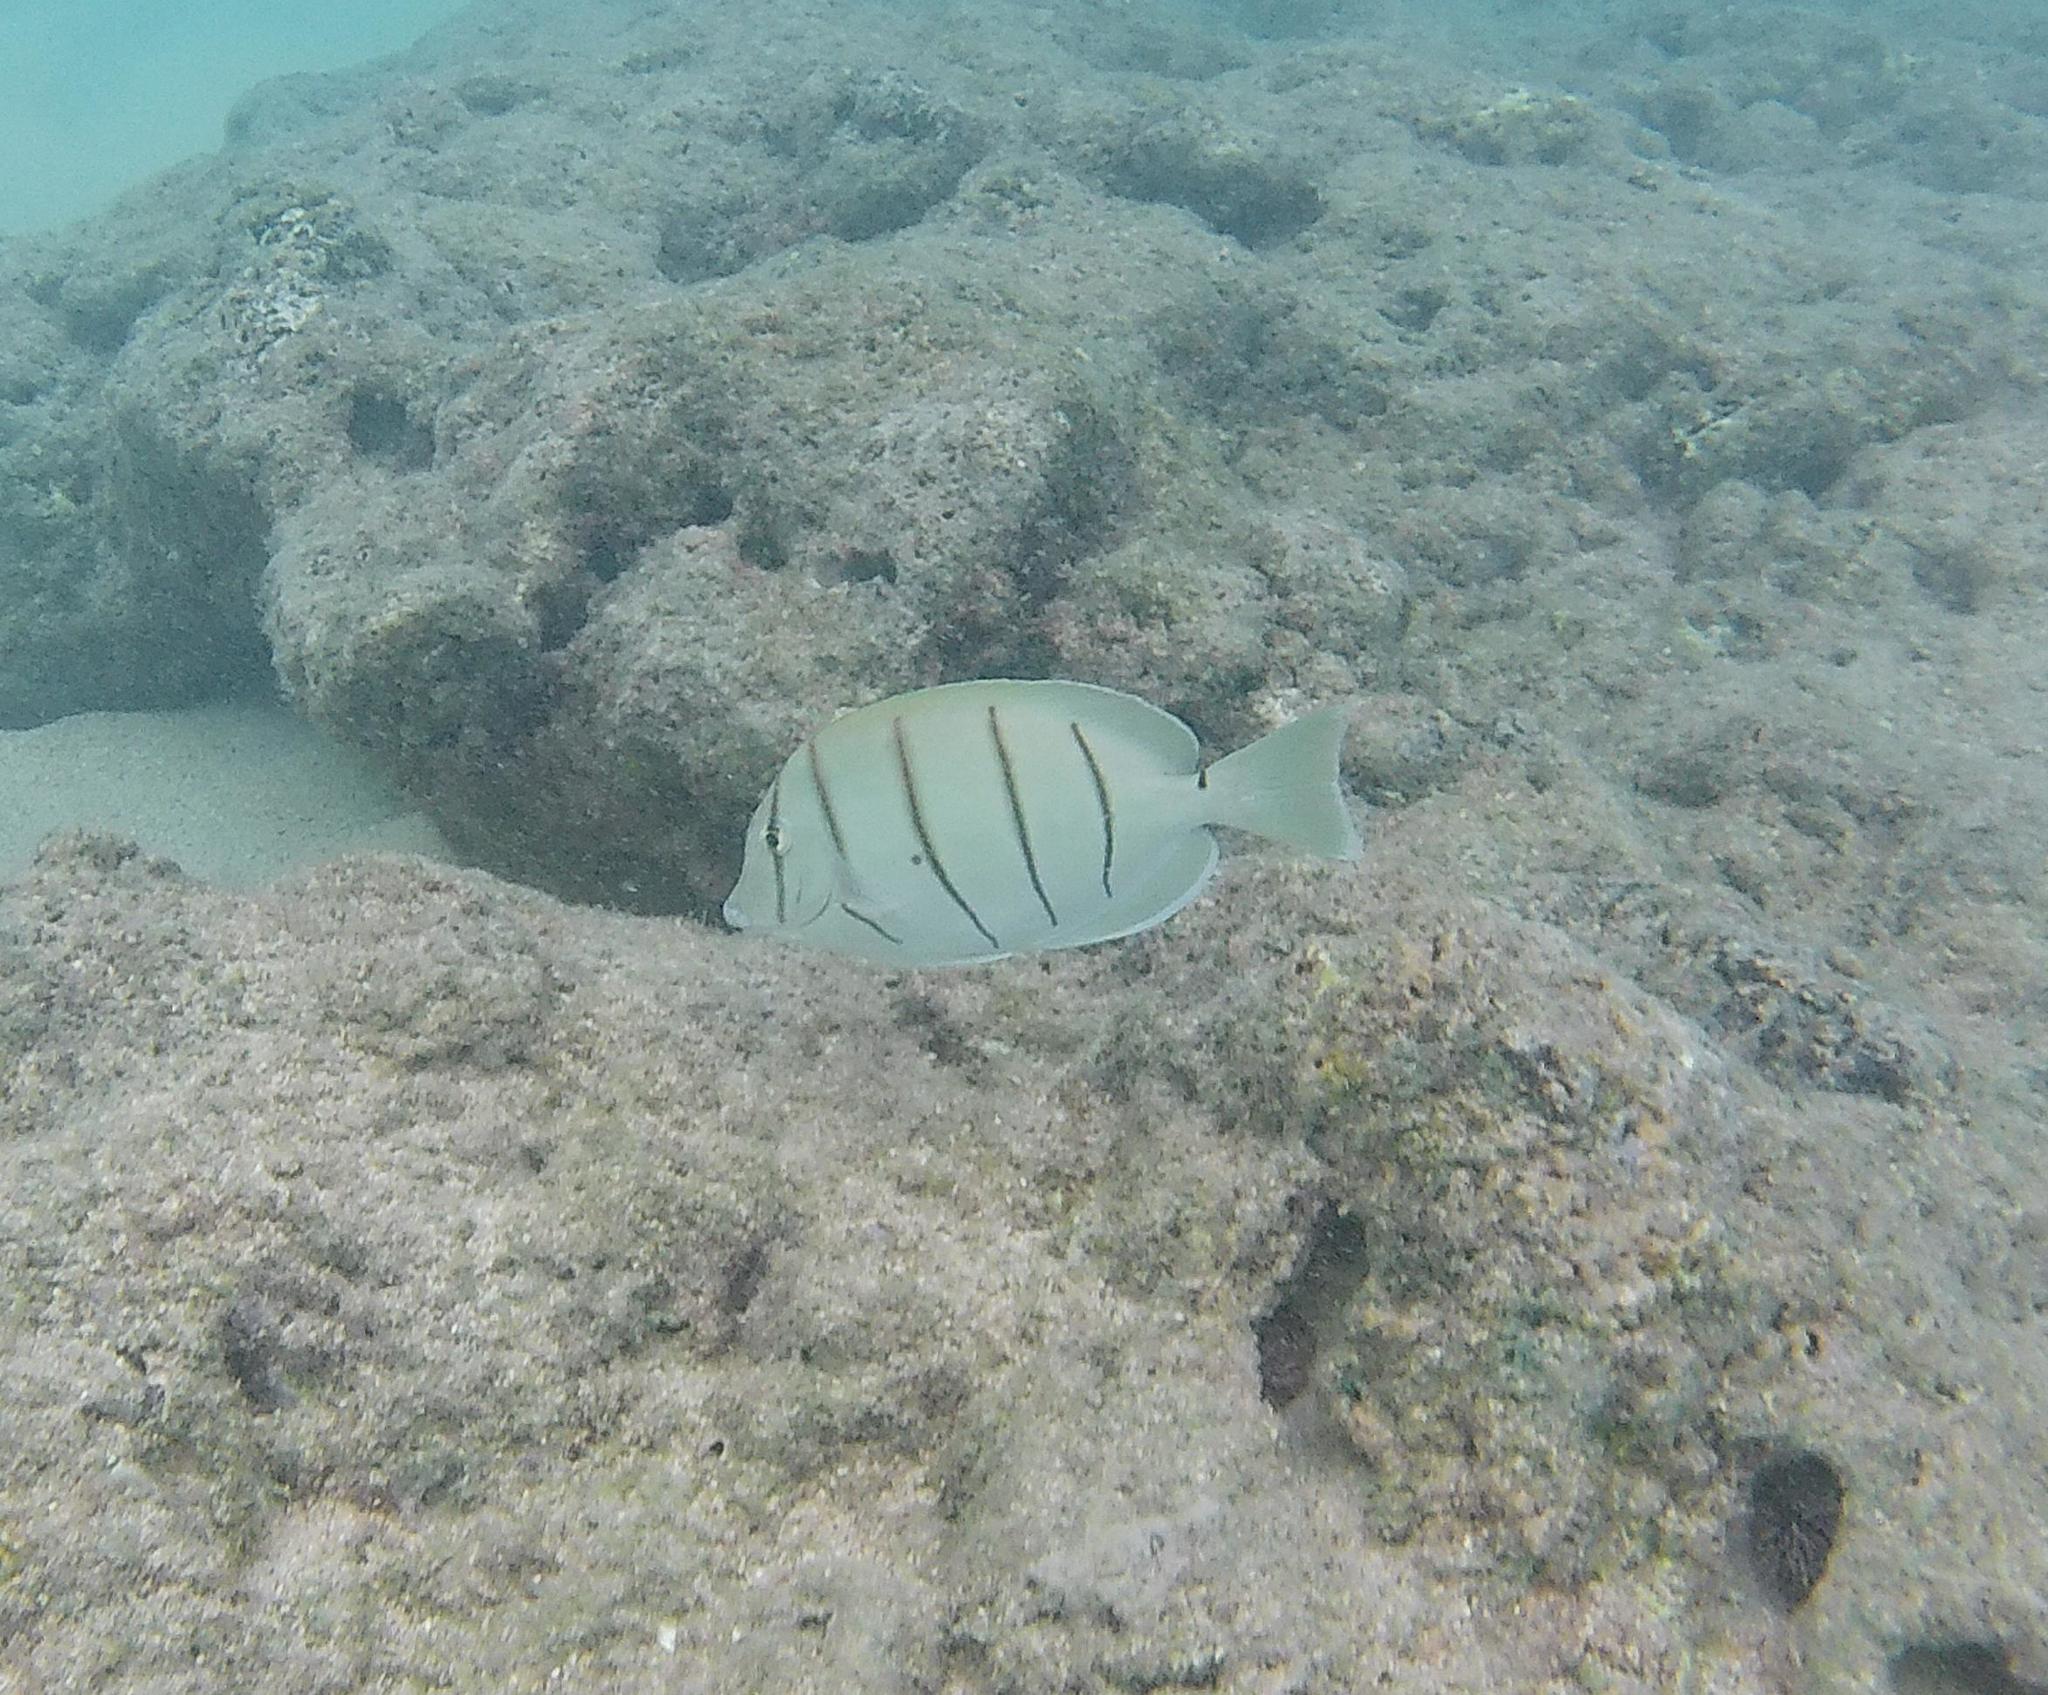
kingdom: Animalia
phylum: Chordata
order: Perciformes
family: Acanthuridae
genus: Acanthurus
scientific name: Acanthurus triostegus
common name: Convict surgeonfish
